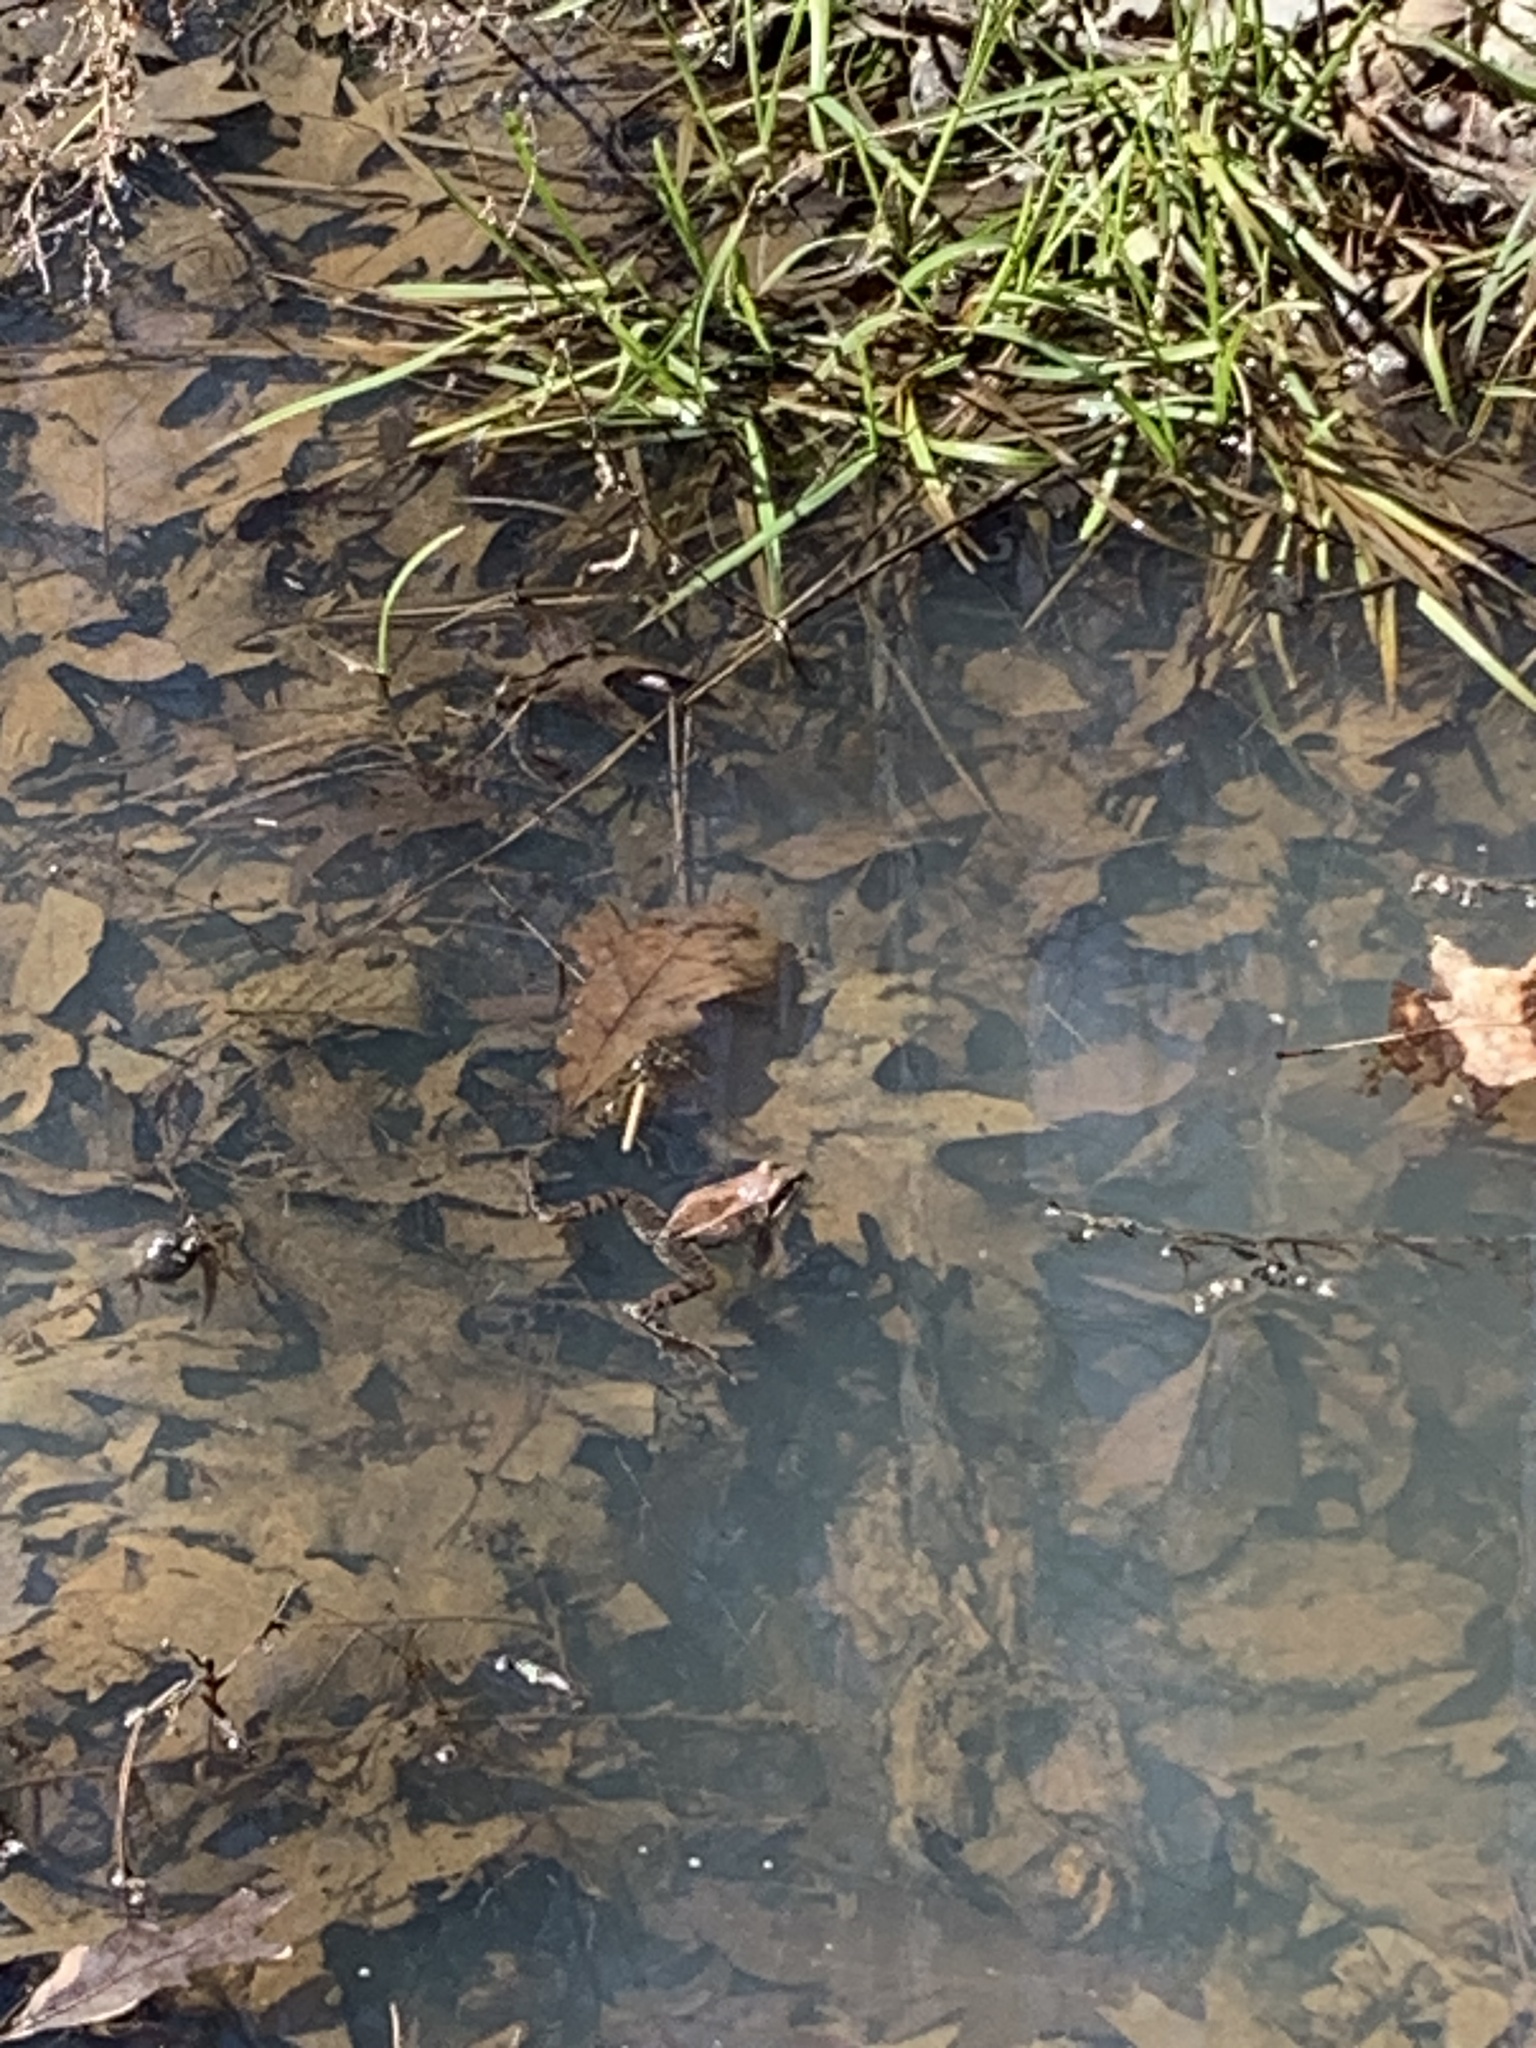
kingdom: Animalia
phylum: Chordata
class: Amphibia
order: Anura
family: Ranidae
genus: Lithobates
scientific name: Lithobates sylvaticus
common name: Wood frog
